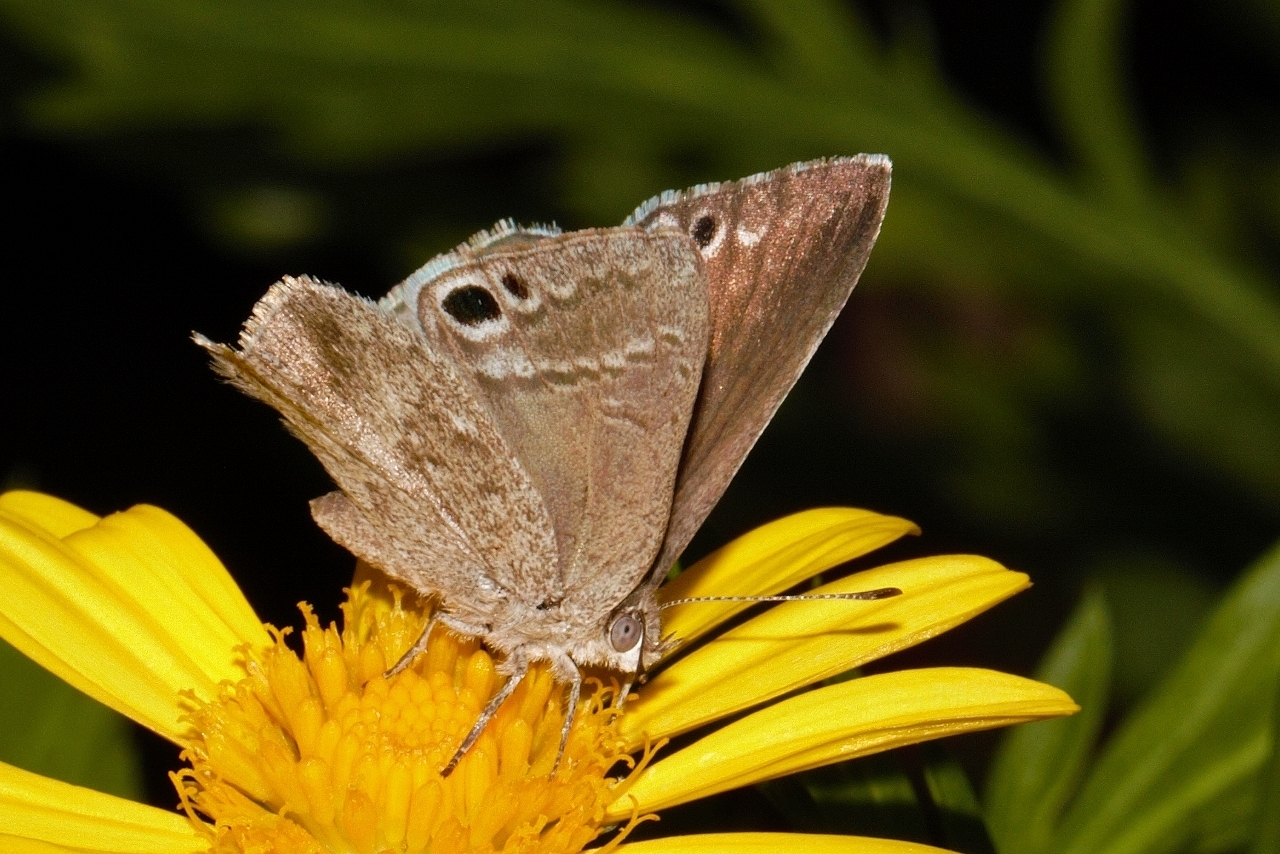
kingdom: Animalia
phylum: Arthropoda
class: Insecta
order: Lepidoptera
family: Lycaenidae
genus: Leptomyrina
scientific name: Leptomyrina henningi
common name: Henning's black-eye
